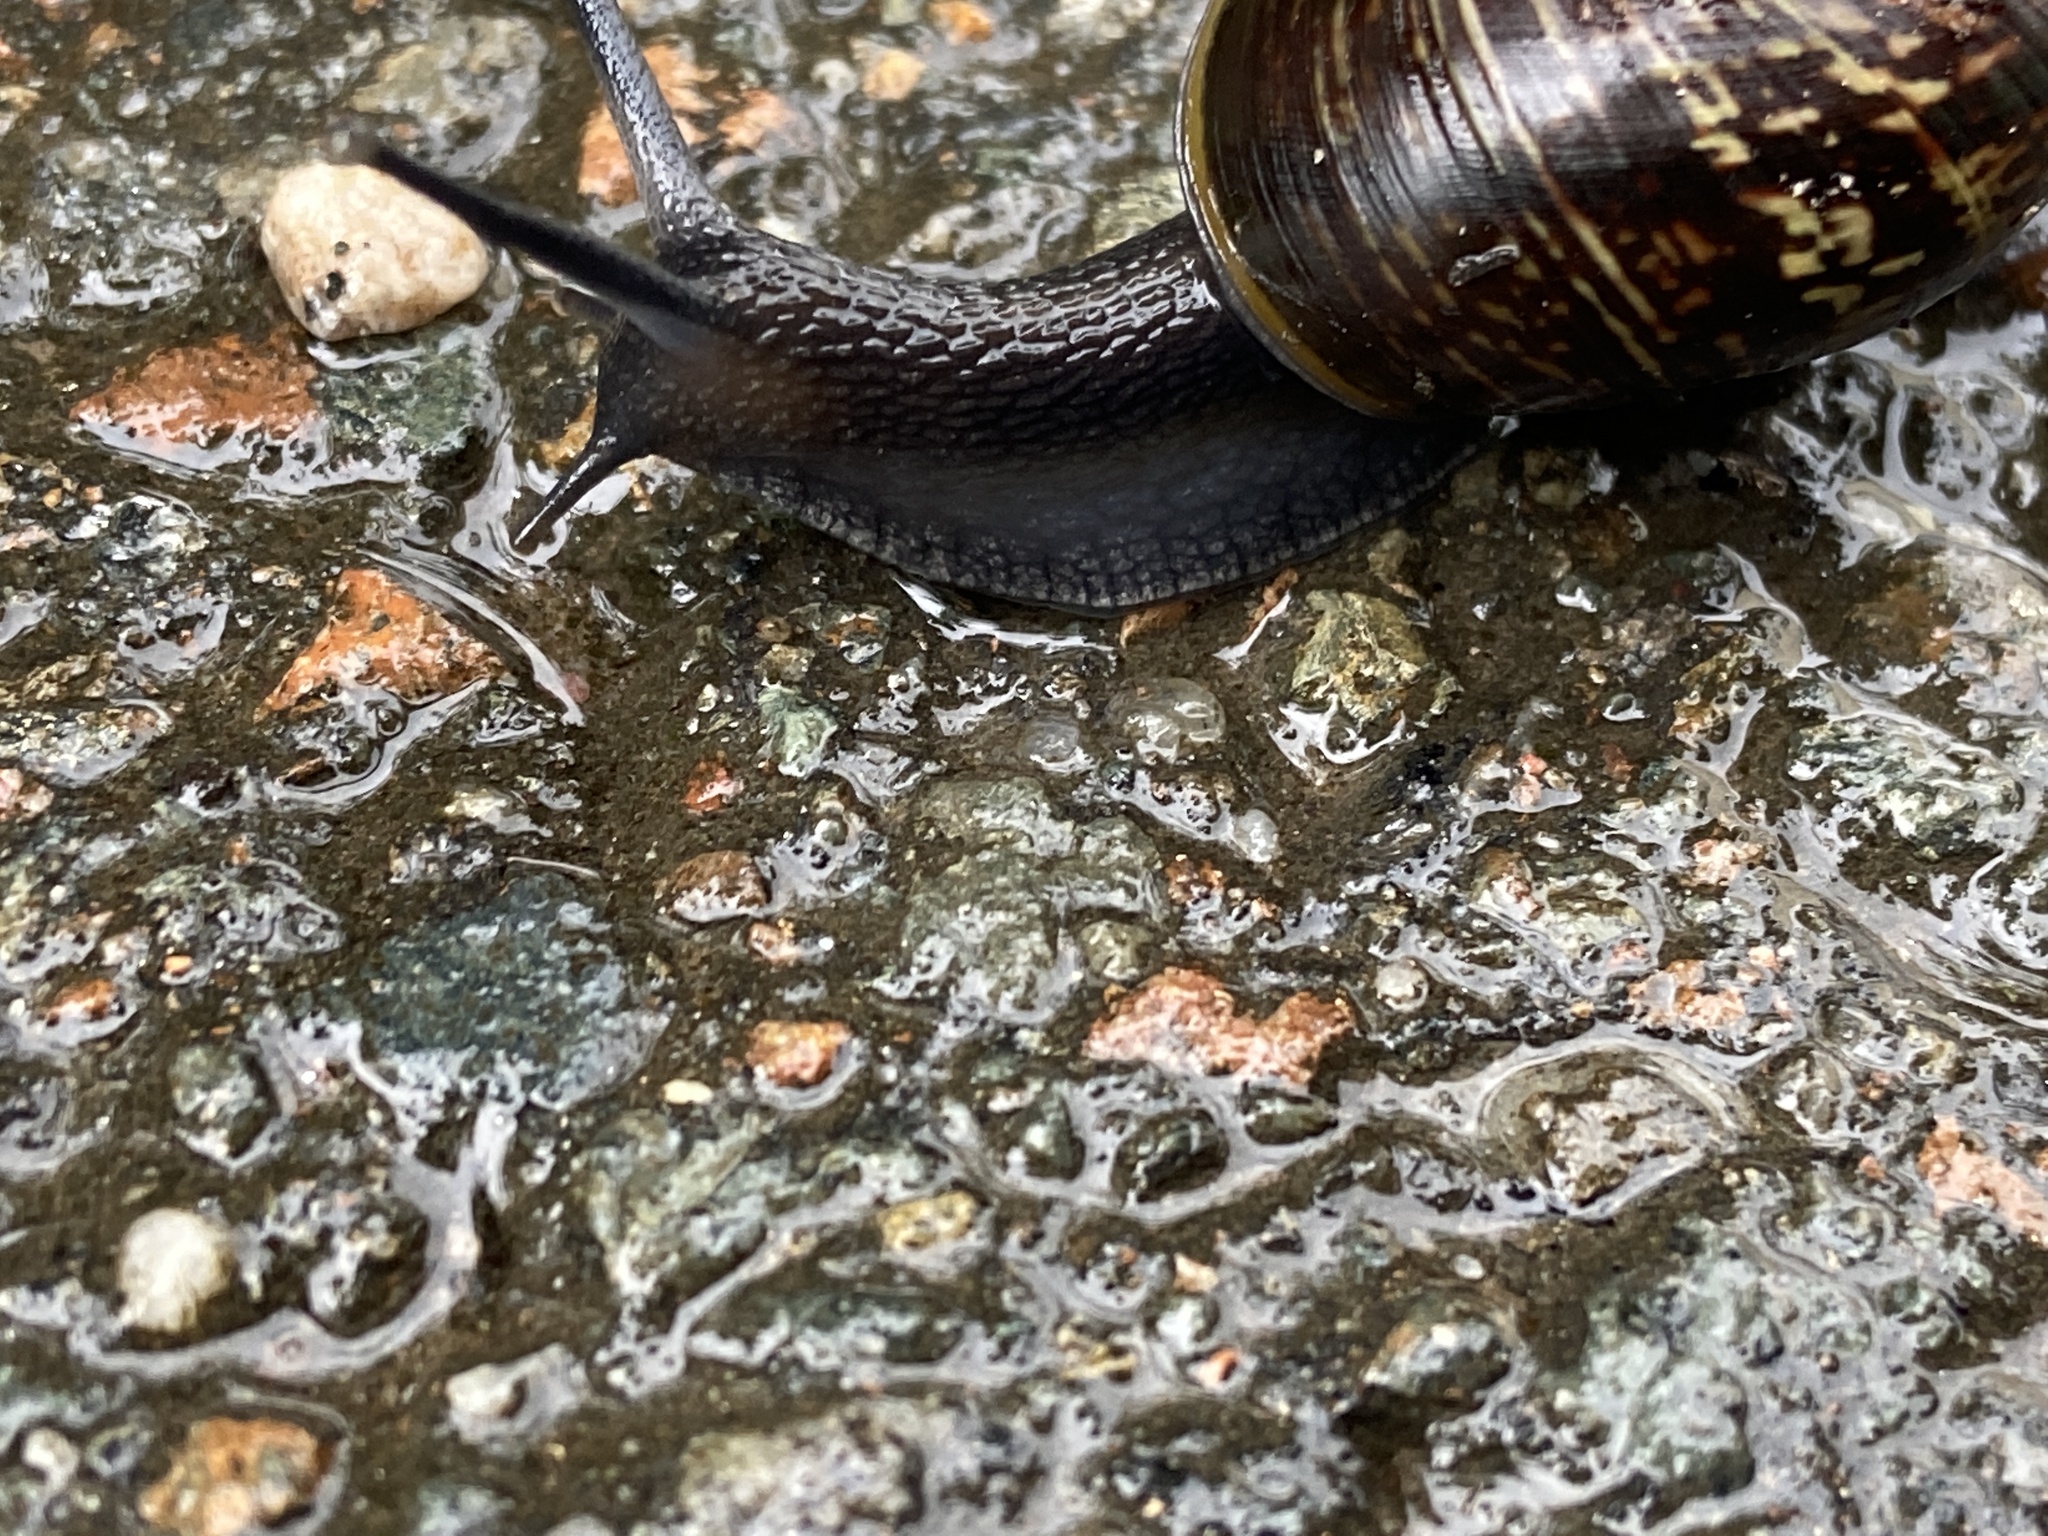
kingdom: Animalia
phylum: Mollusca
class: Gastropoda
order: Stylommatophora
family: Helicidae
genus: Arianta
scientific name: Arianta arbustorum
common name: Copse snail
